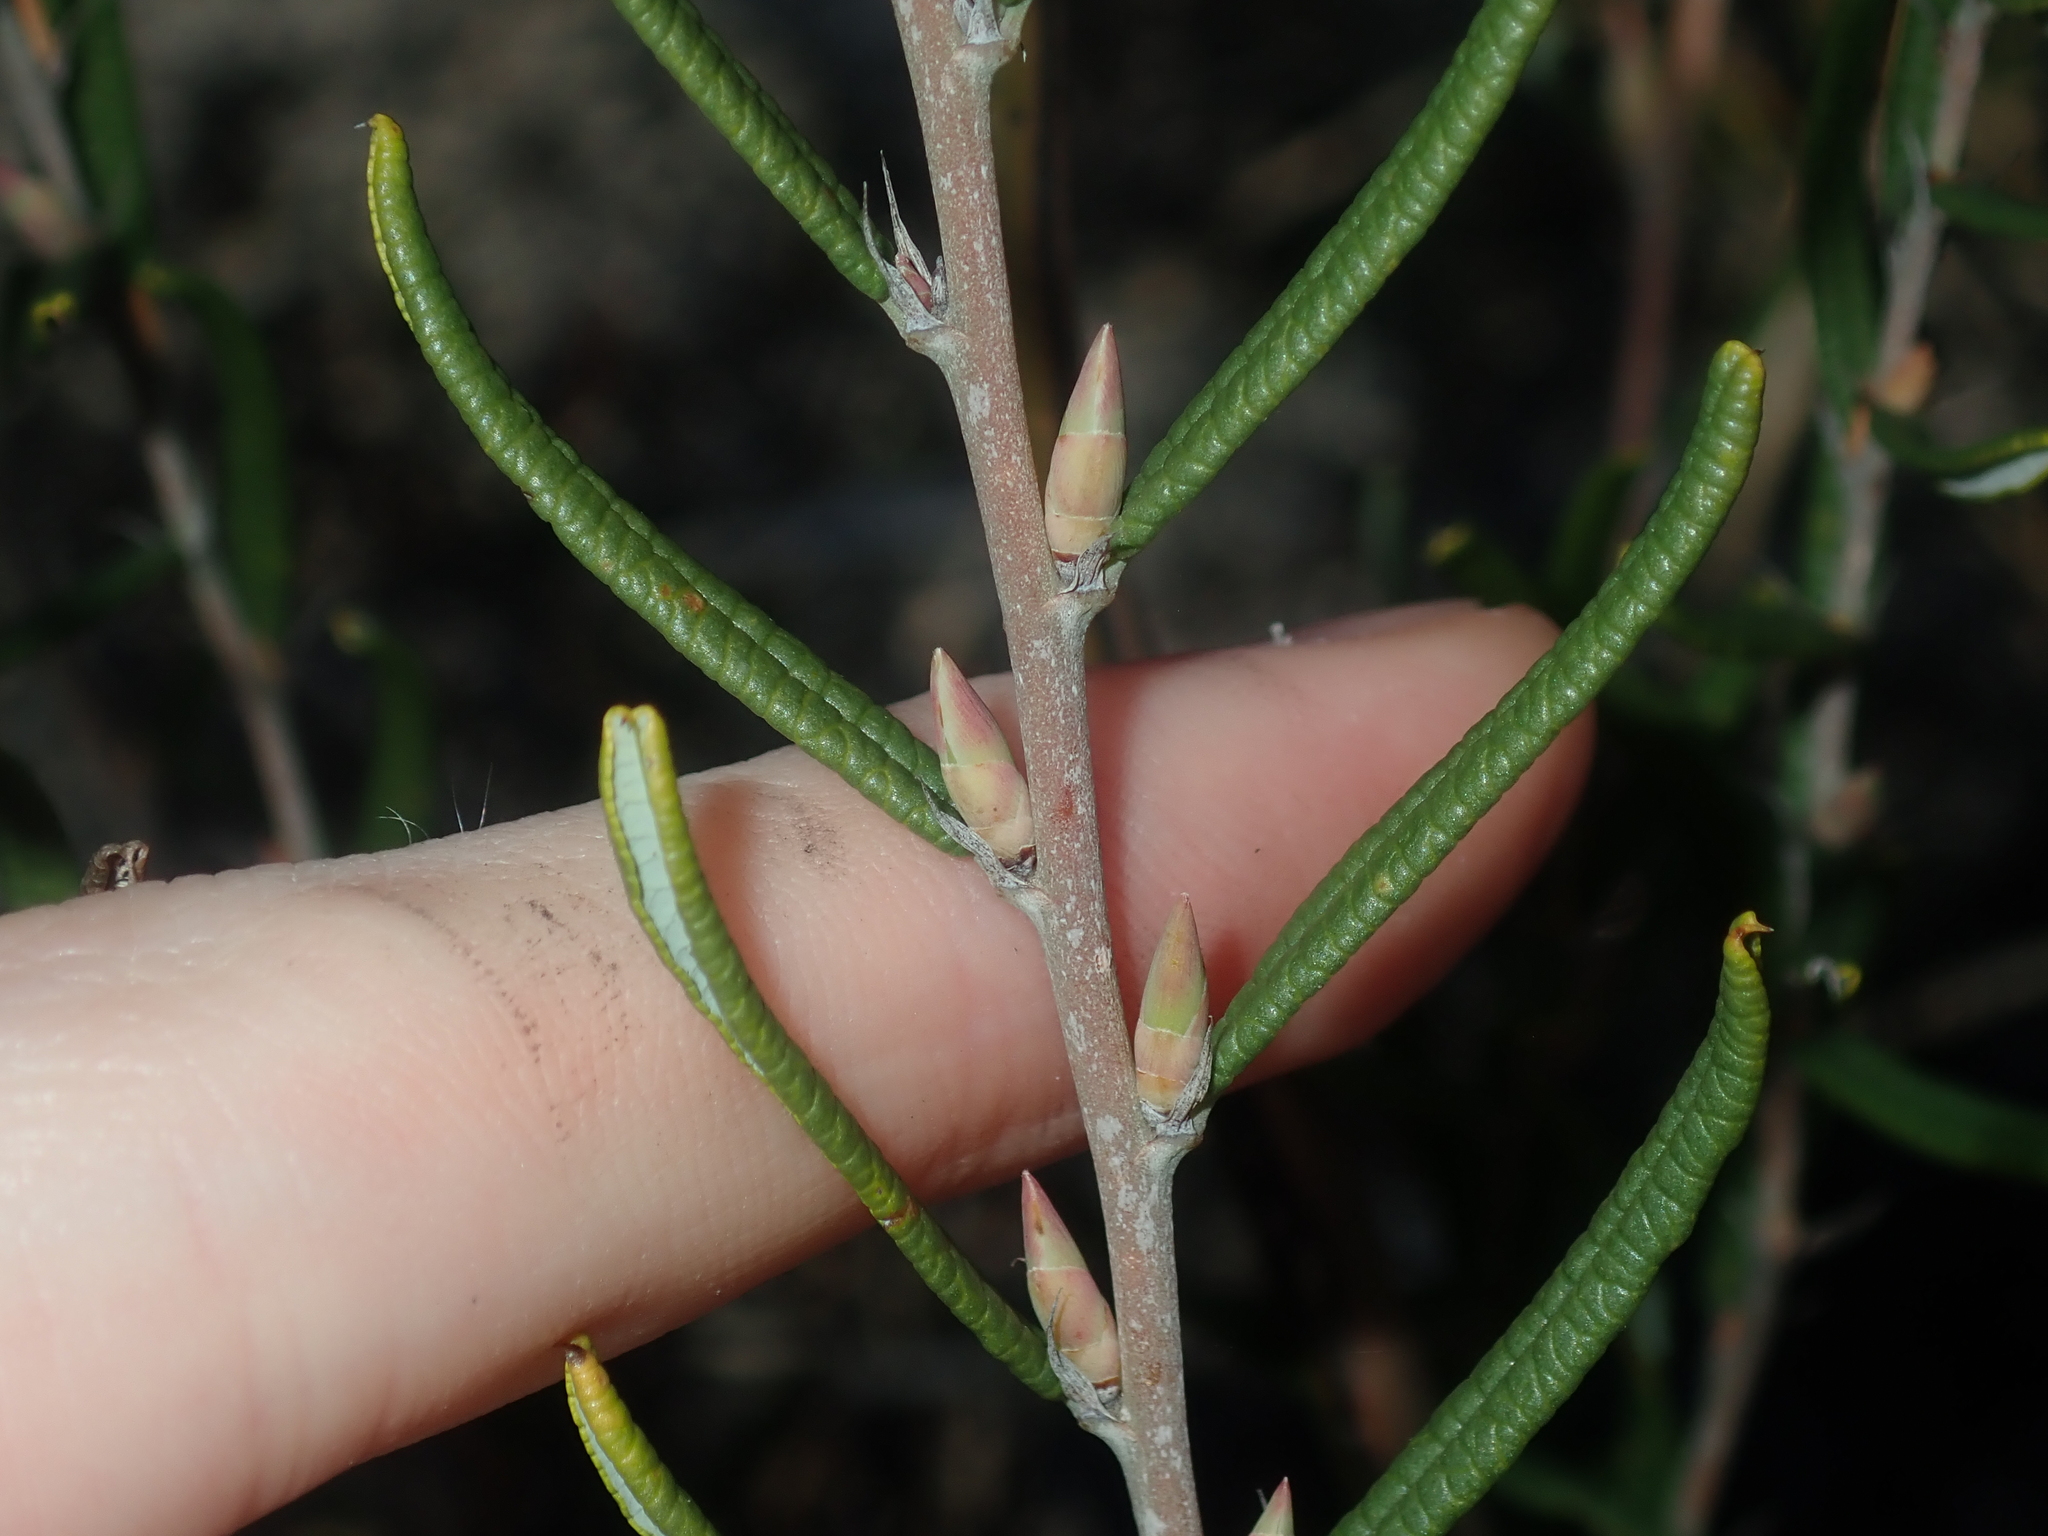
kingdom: Plantae
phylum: Tracheophyta
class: Magnoliopsida
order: Fabales
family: Fabaceae
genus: Bossiaea
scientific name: Bossiaea eriocarpa
